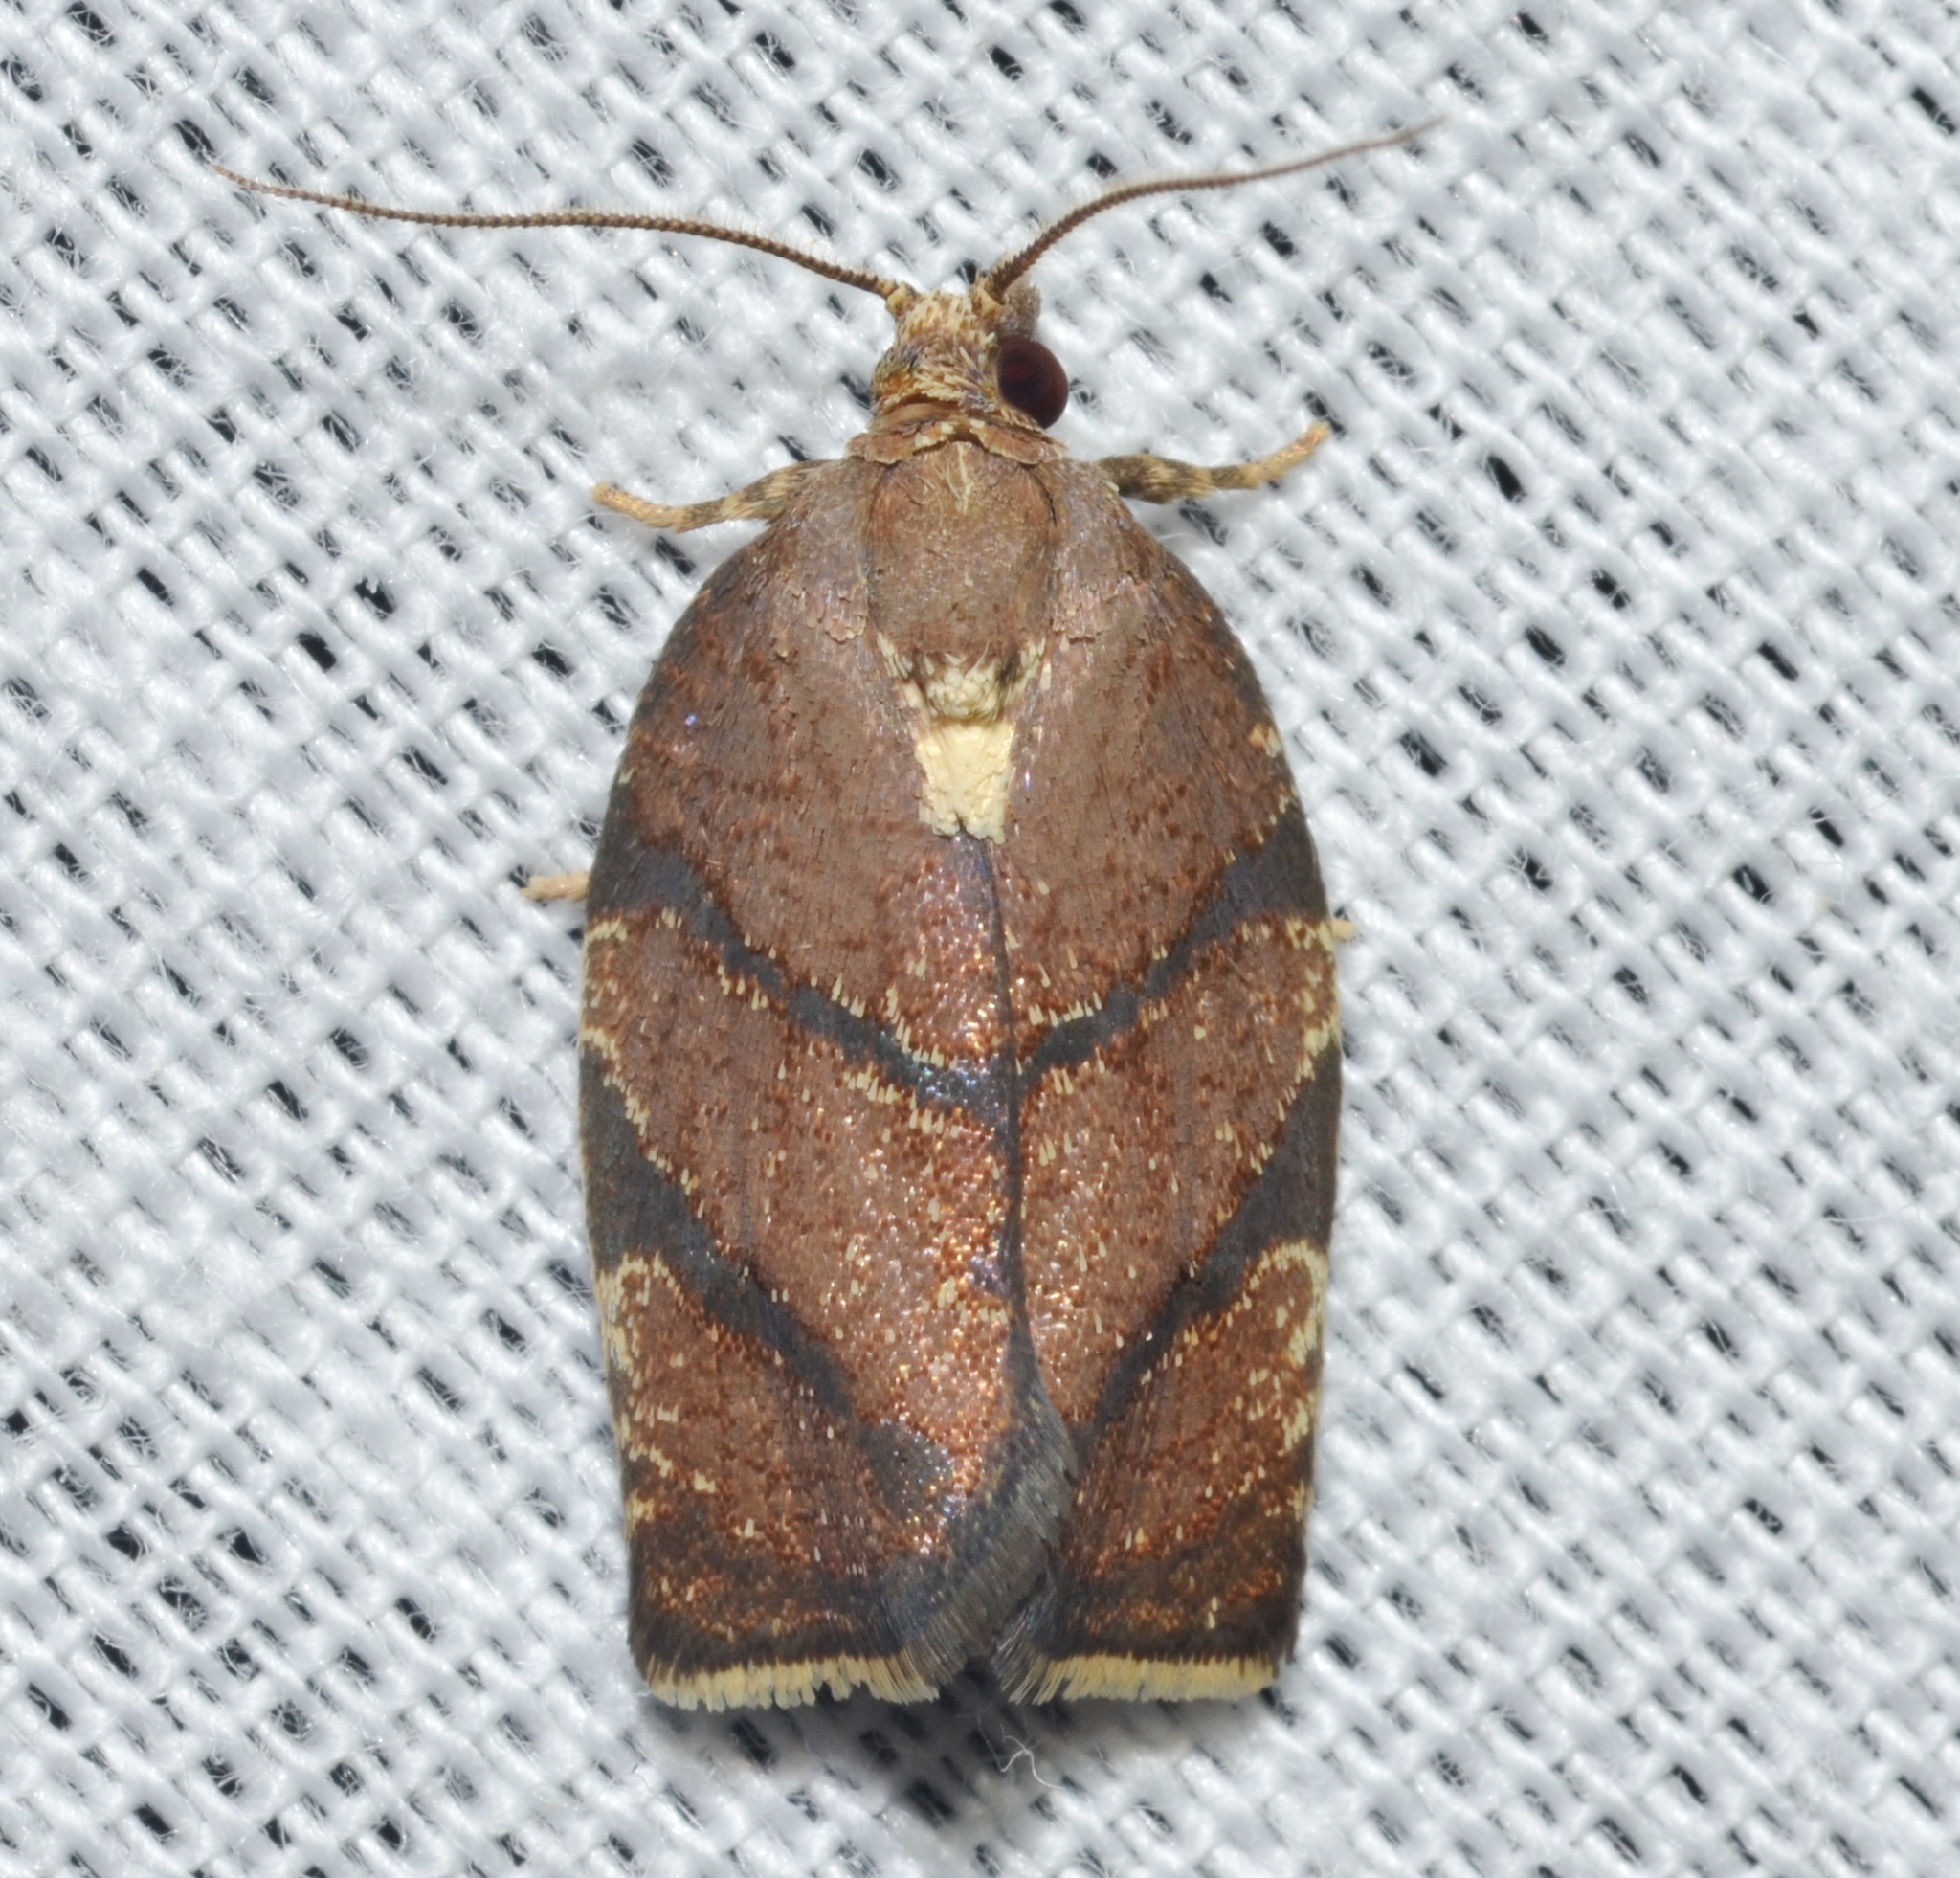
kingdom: Animalia
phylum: Arthropoda
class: Insecta
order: Lepidoptera
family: Tortricidae
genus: Argyrotaenia
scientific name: Argyrotaenia juglandana
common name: Hickory leafroller moth
